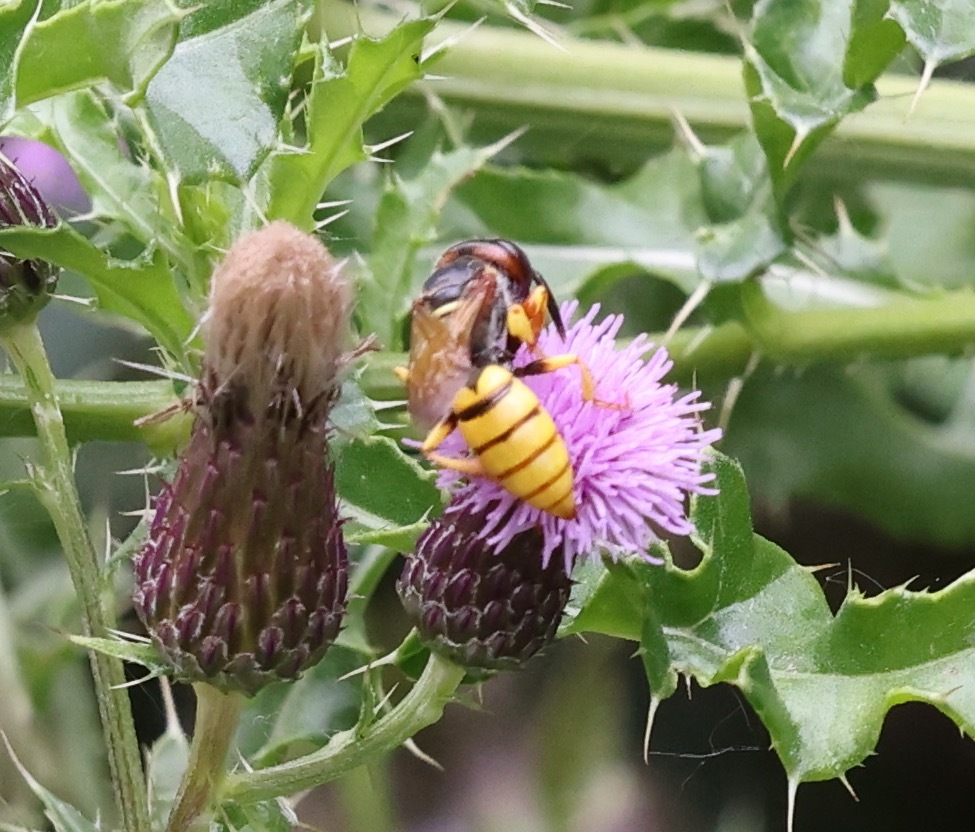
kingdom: Animalia
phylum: Arthropoda
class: Insecta
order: Hymenoptera
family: Crabronidae
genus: Philanthus
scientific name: Philanthus triangulum
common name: Bee wolf
